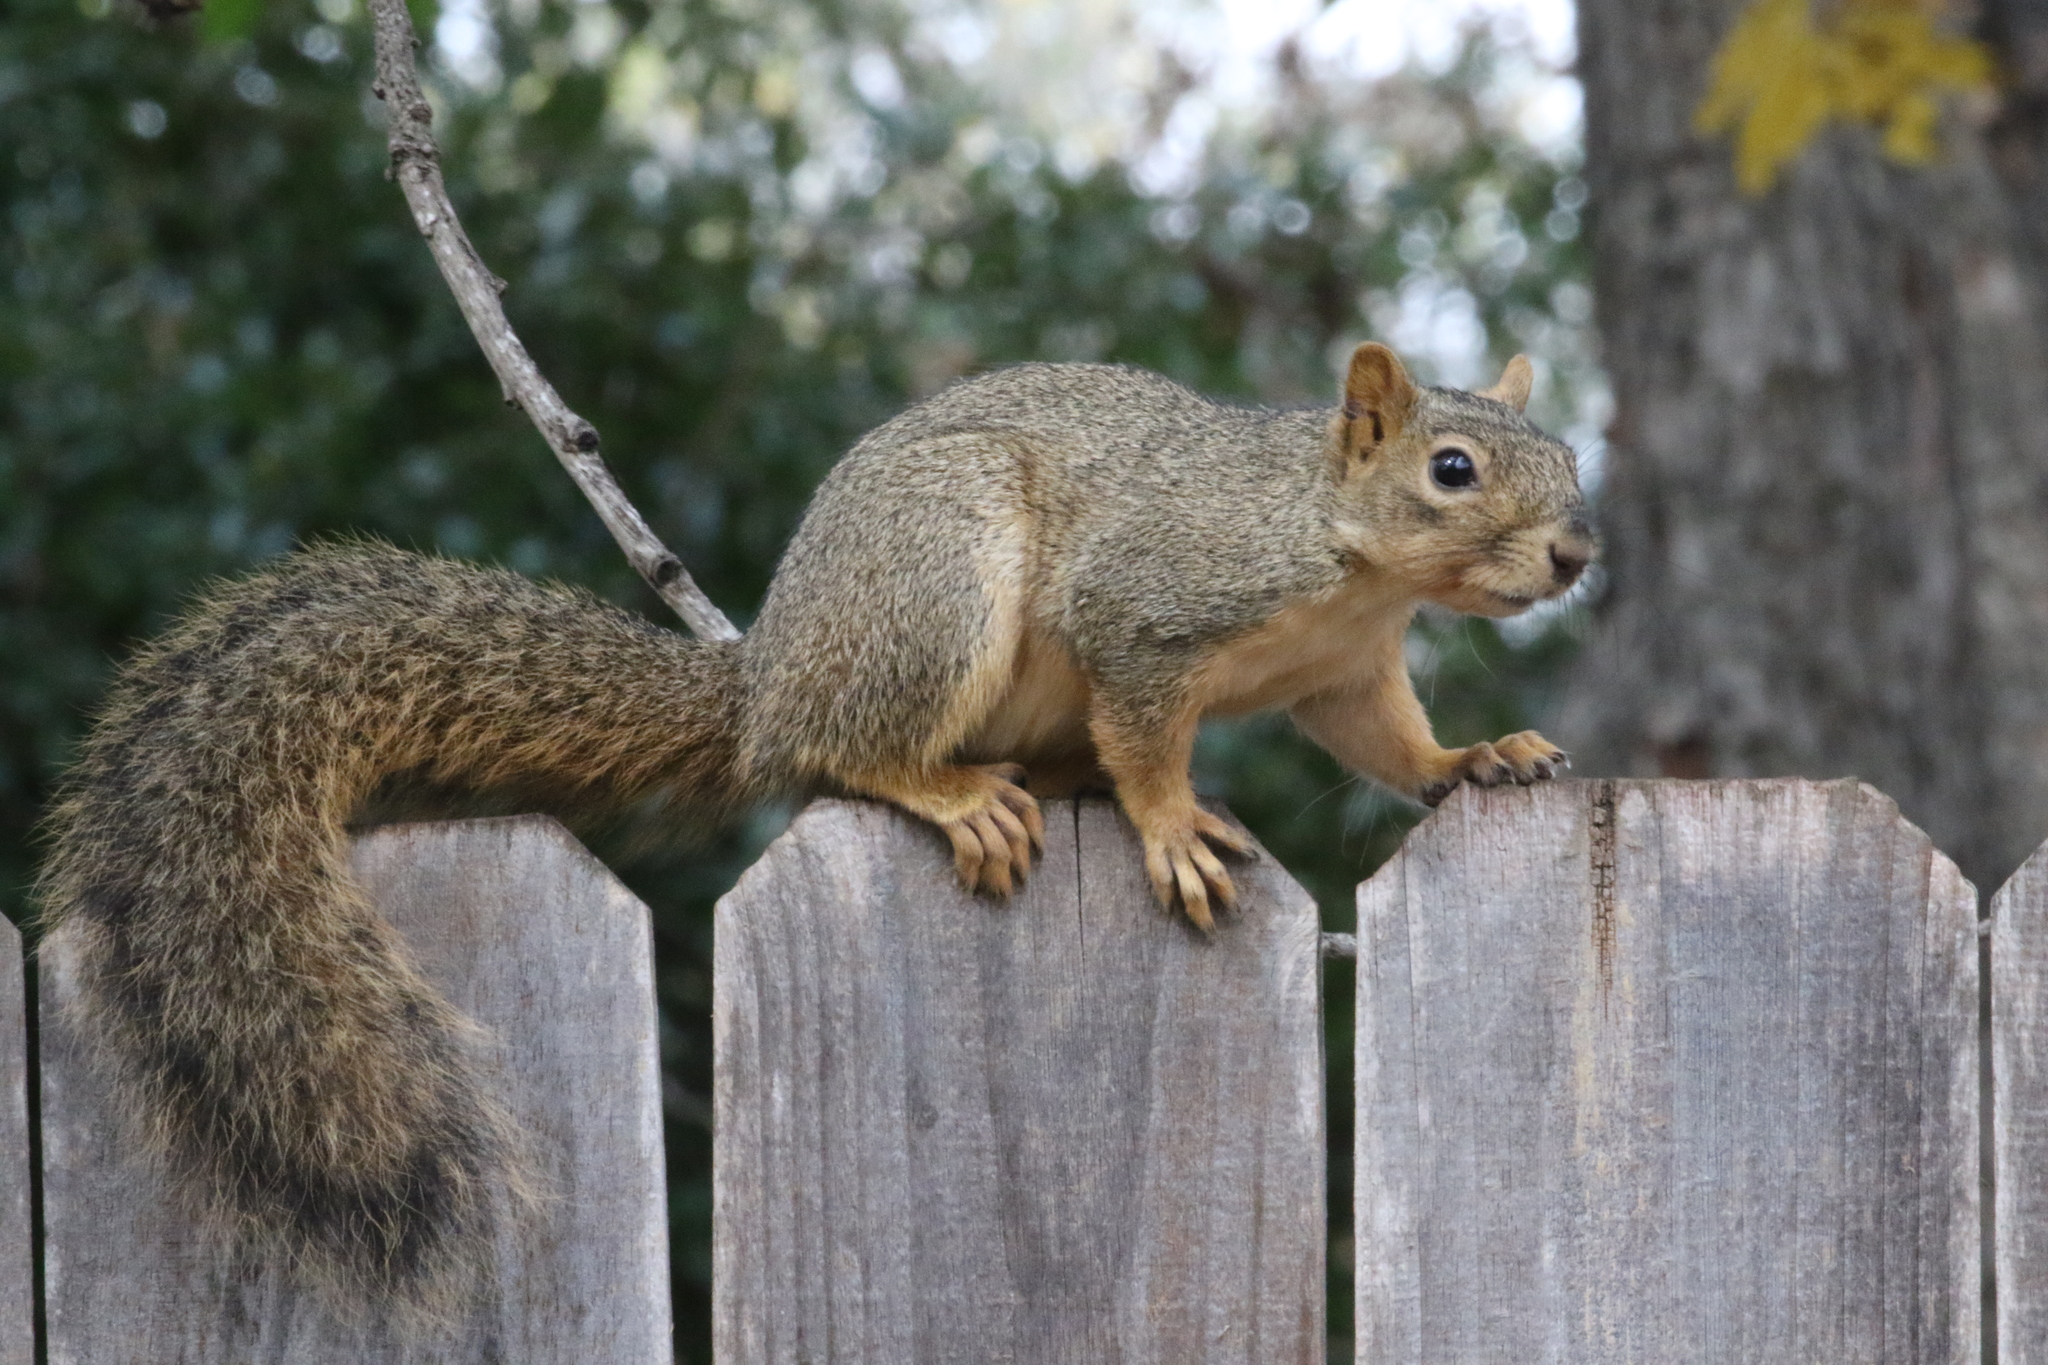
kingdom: Animalia
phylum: Chordata
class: Mammalia
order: Rodentia
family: Sciuridae
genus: Sciurus
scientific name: Sciurus niger
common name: Fox squirrel
